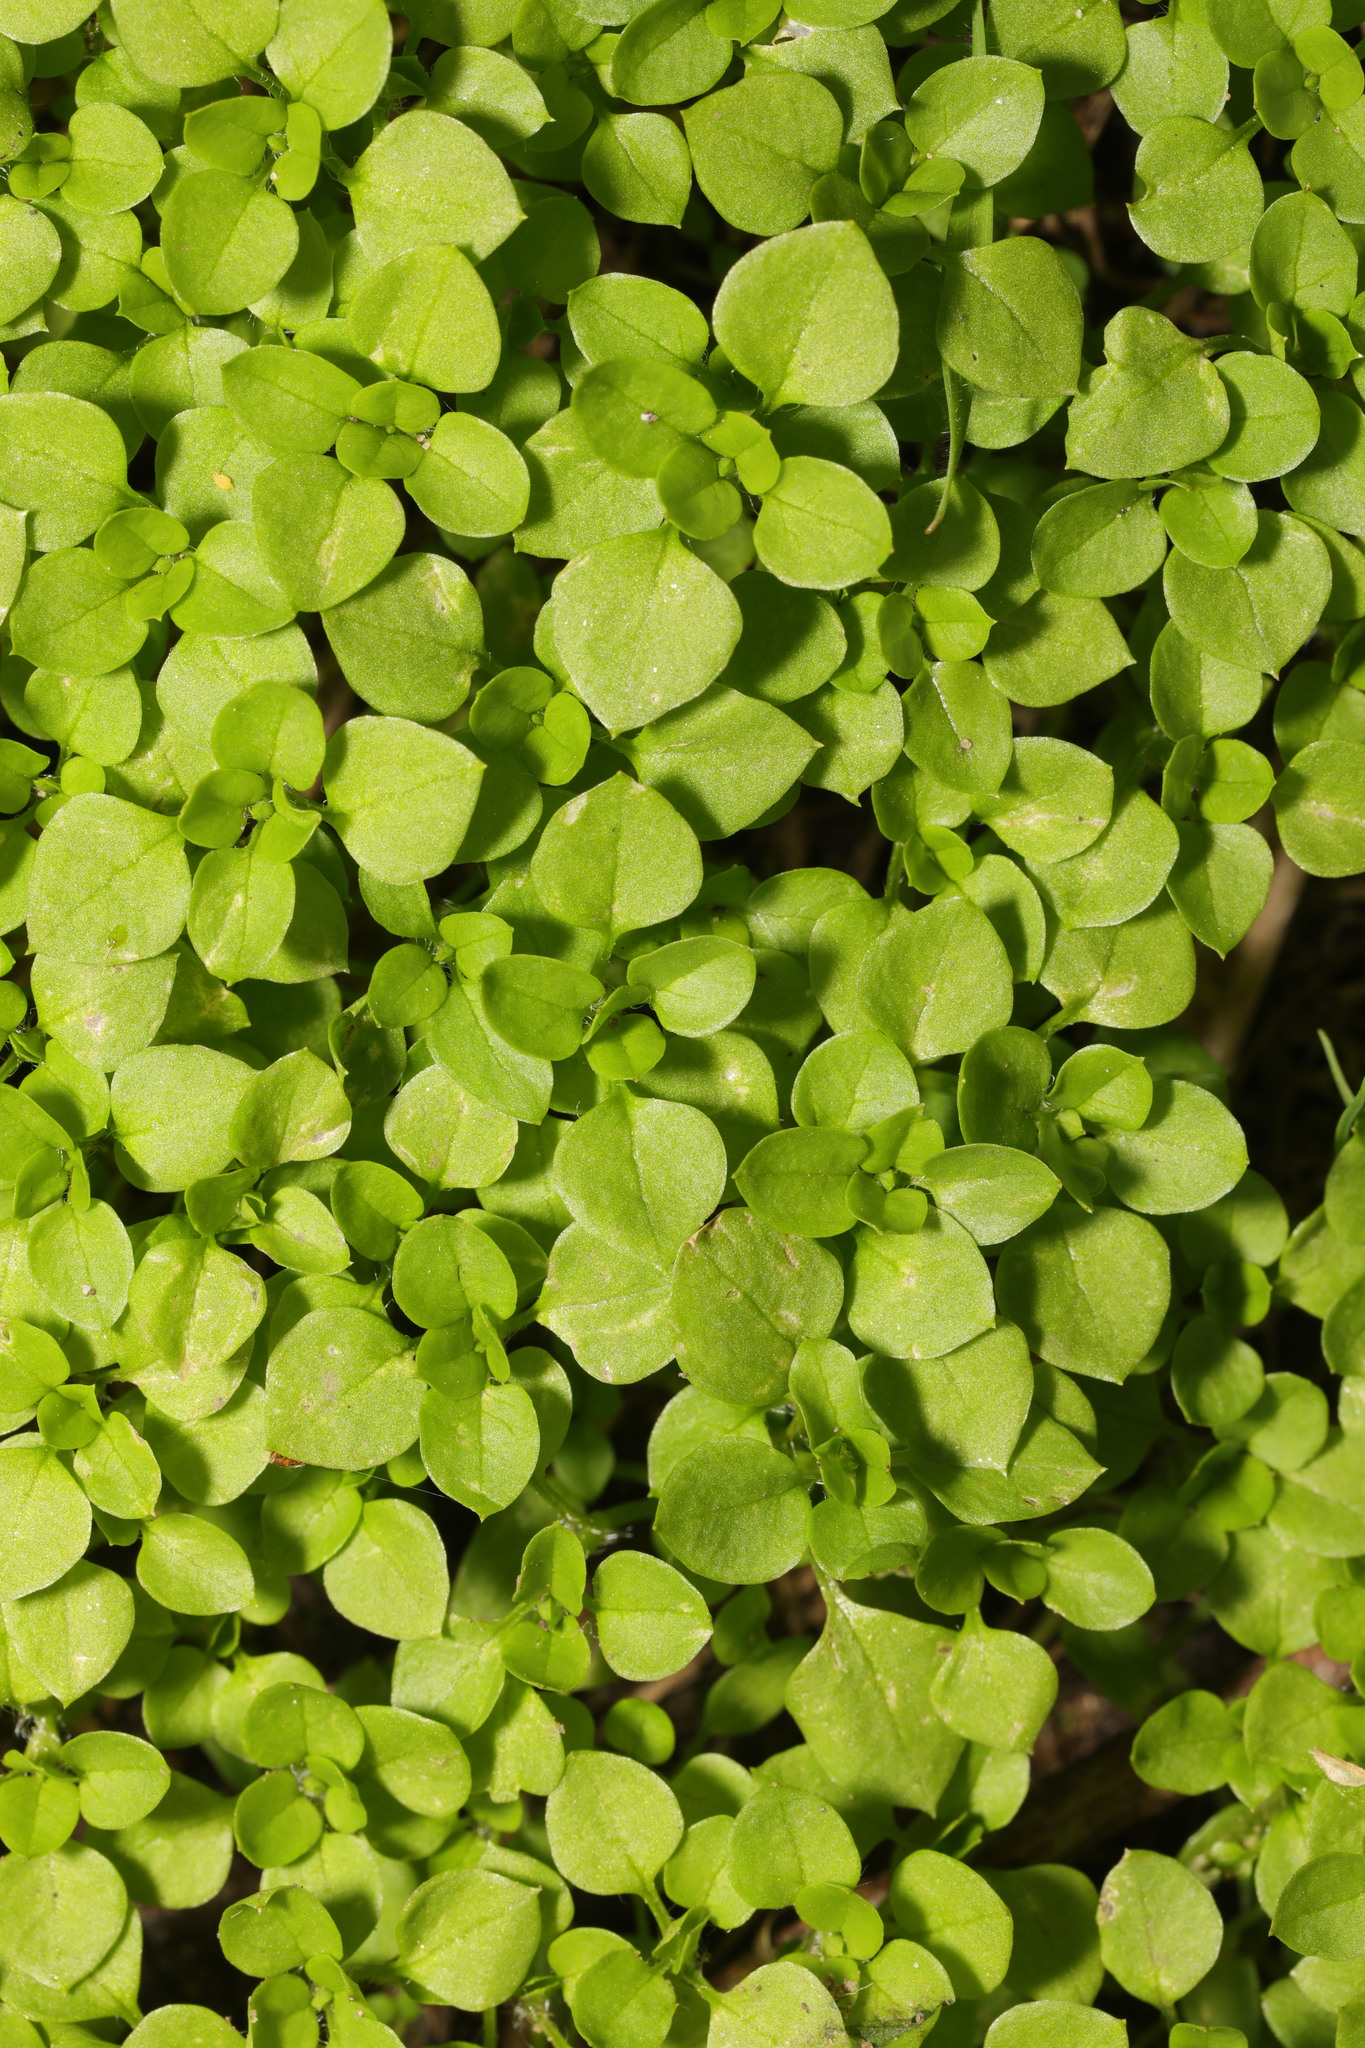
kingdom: Plantae
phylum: Tracheophyta
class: Magnoliopsida
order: Caryophyllales
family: Caryophyllaceae
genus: Stellaria
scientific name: Stellaria media
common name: Common chickweed
